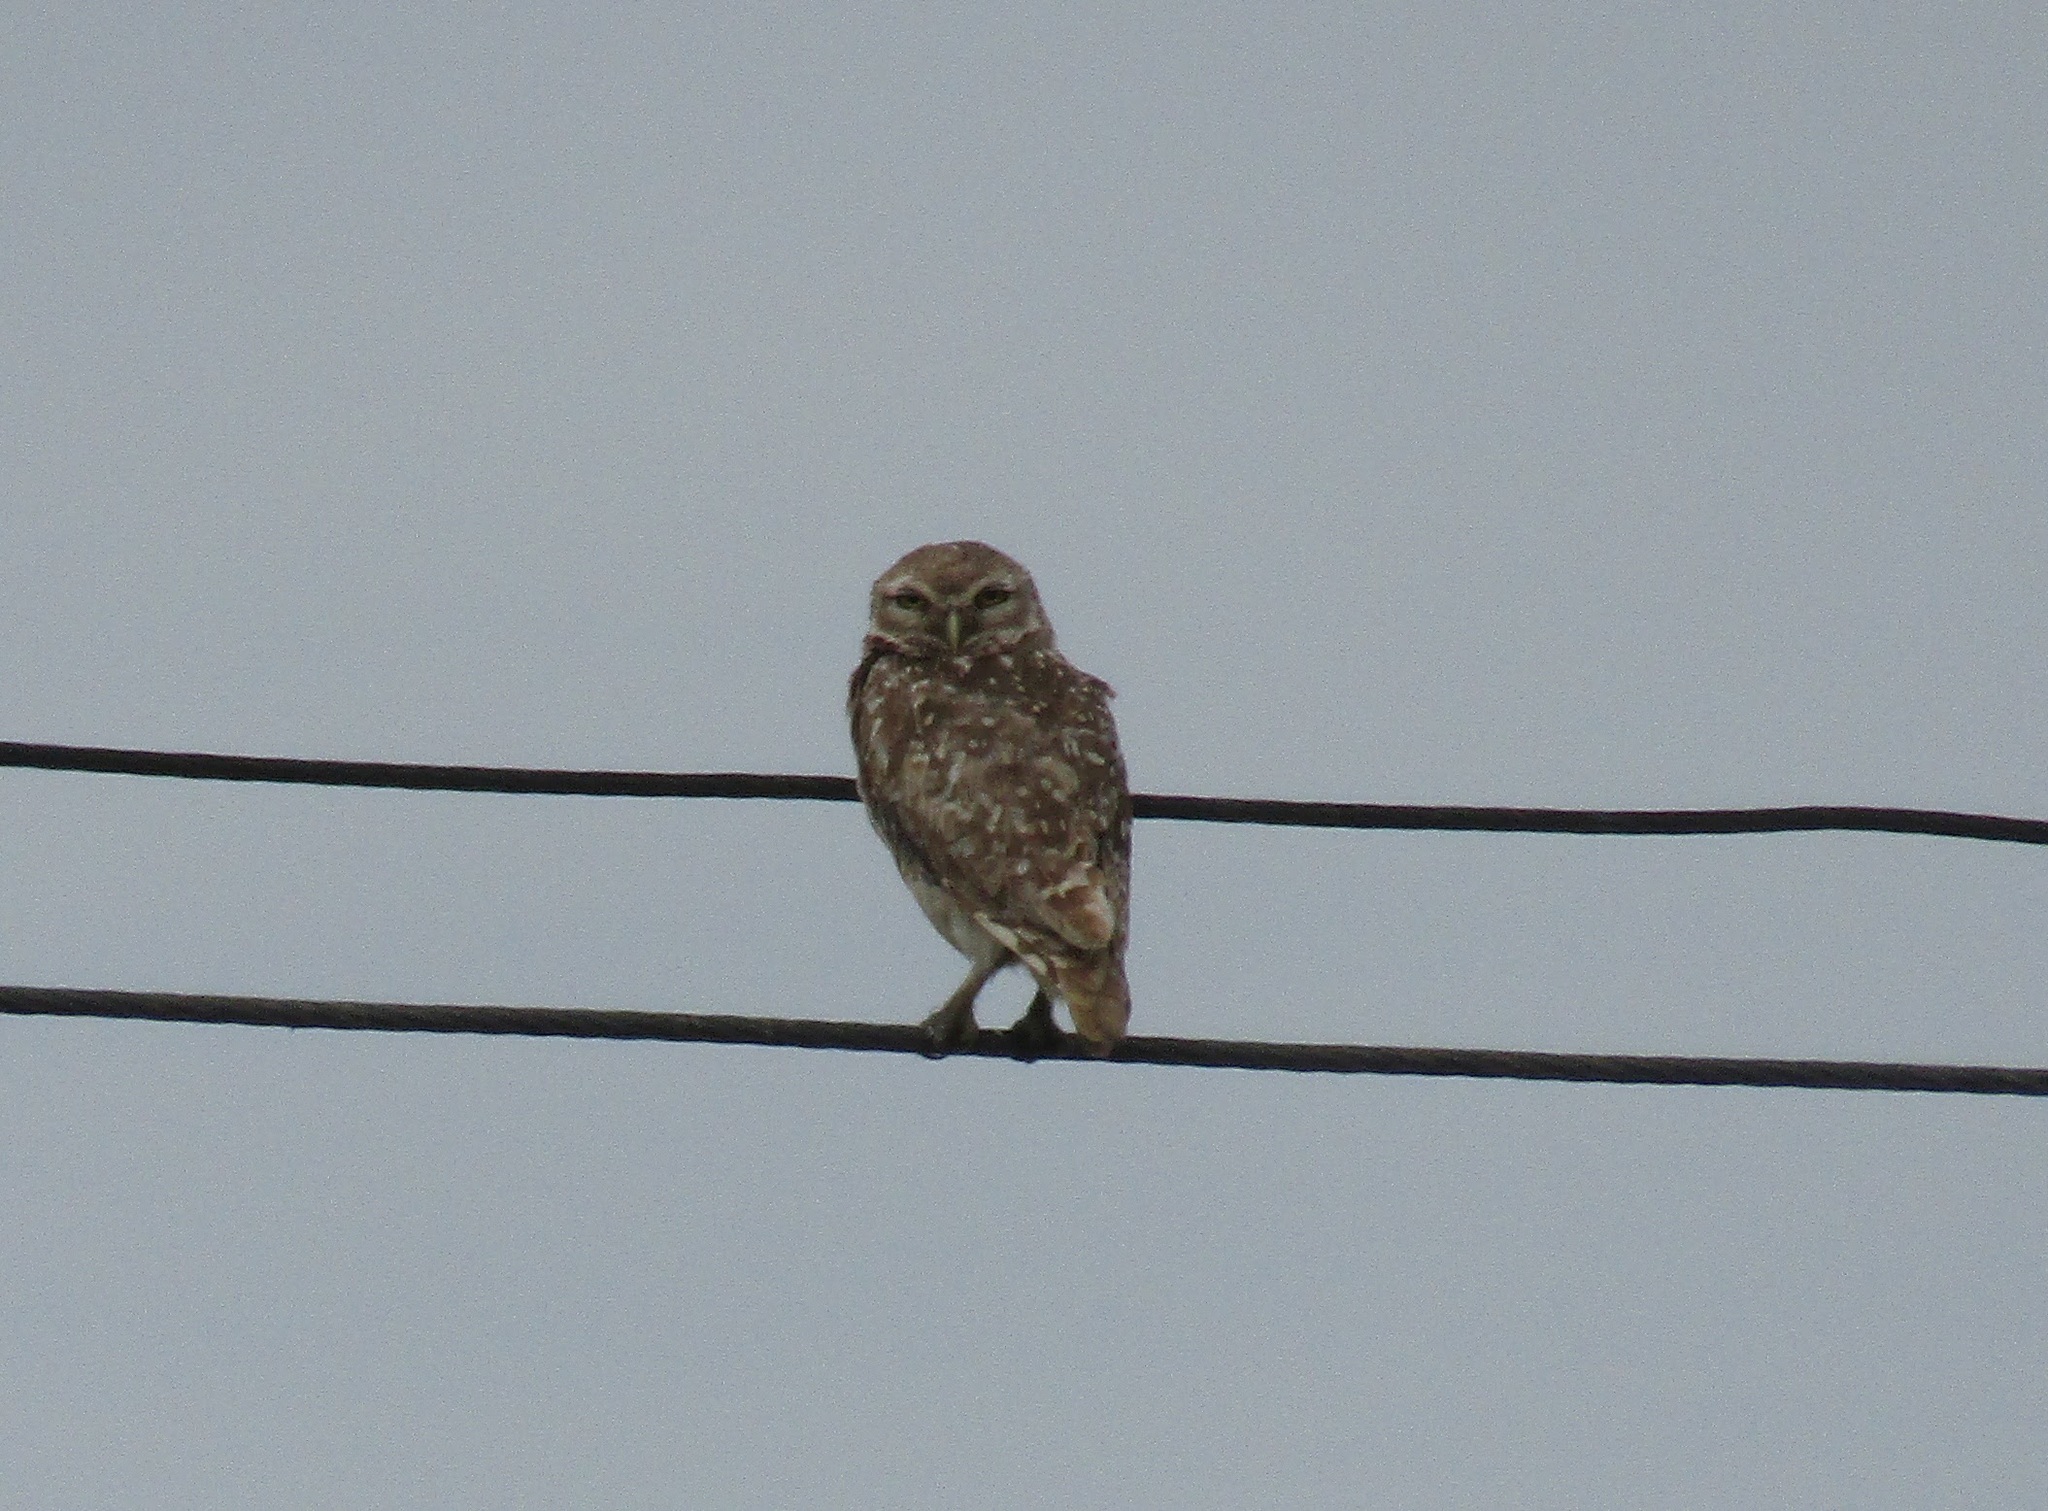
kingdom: Animalia
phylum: Chordata
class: Aves
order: Strigiformes
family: Strigidae
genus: Athene
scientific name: Athene cunicularia
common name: Burrowing owl
